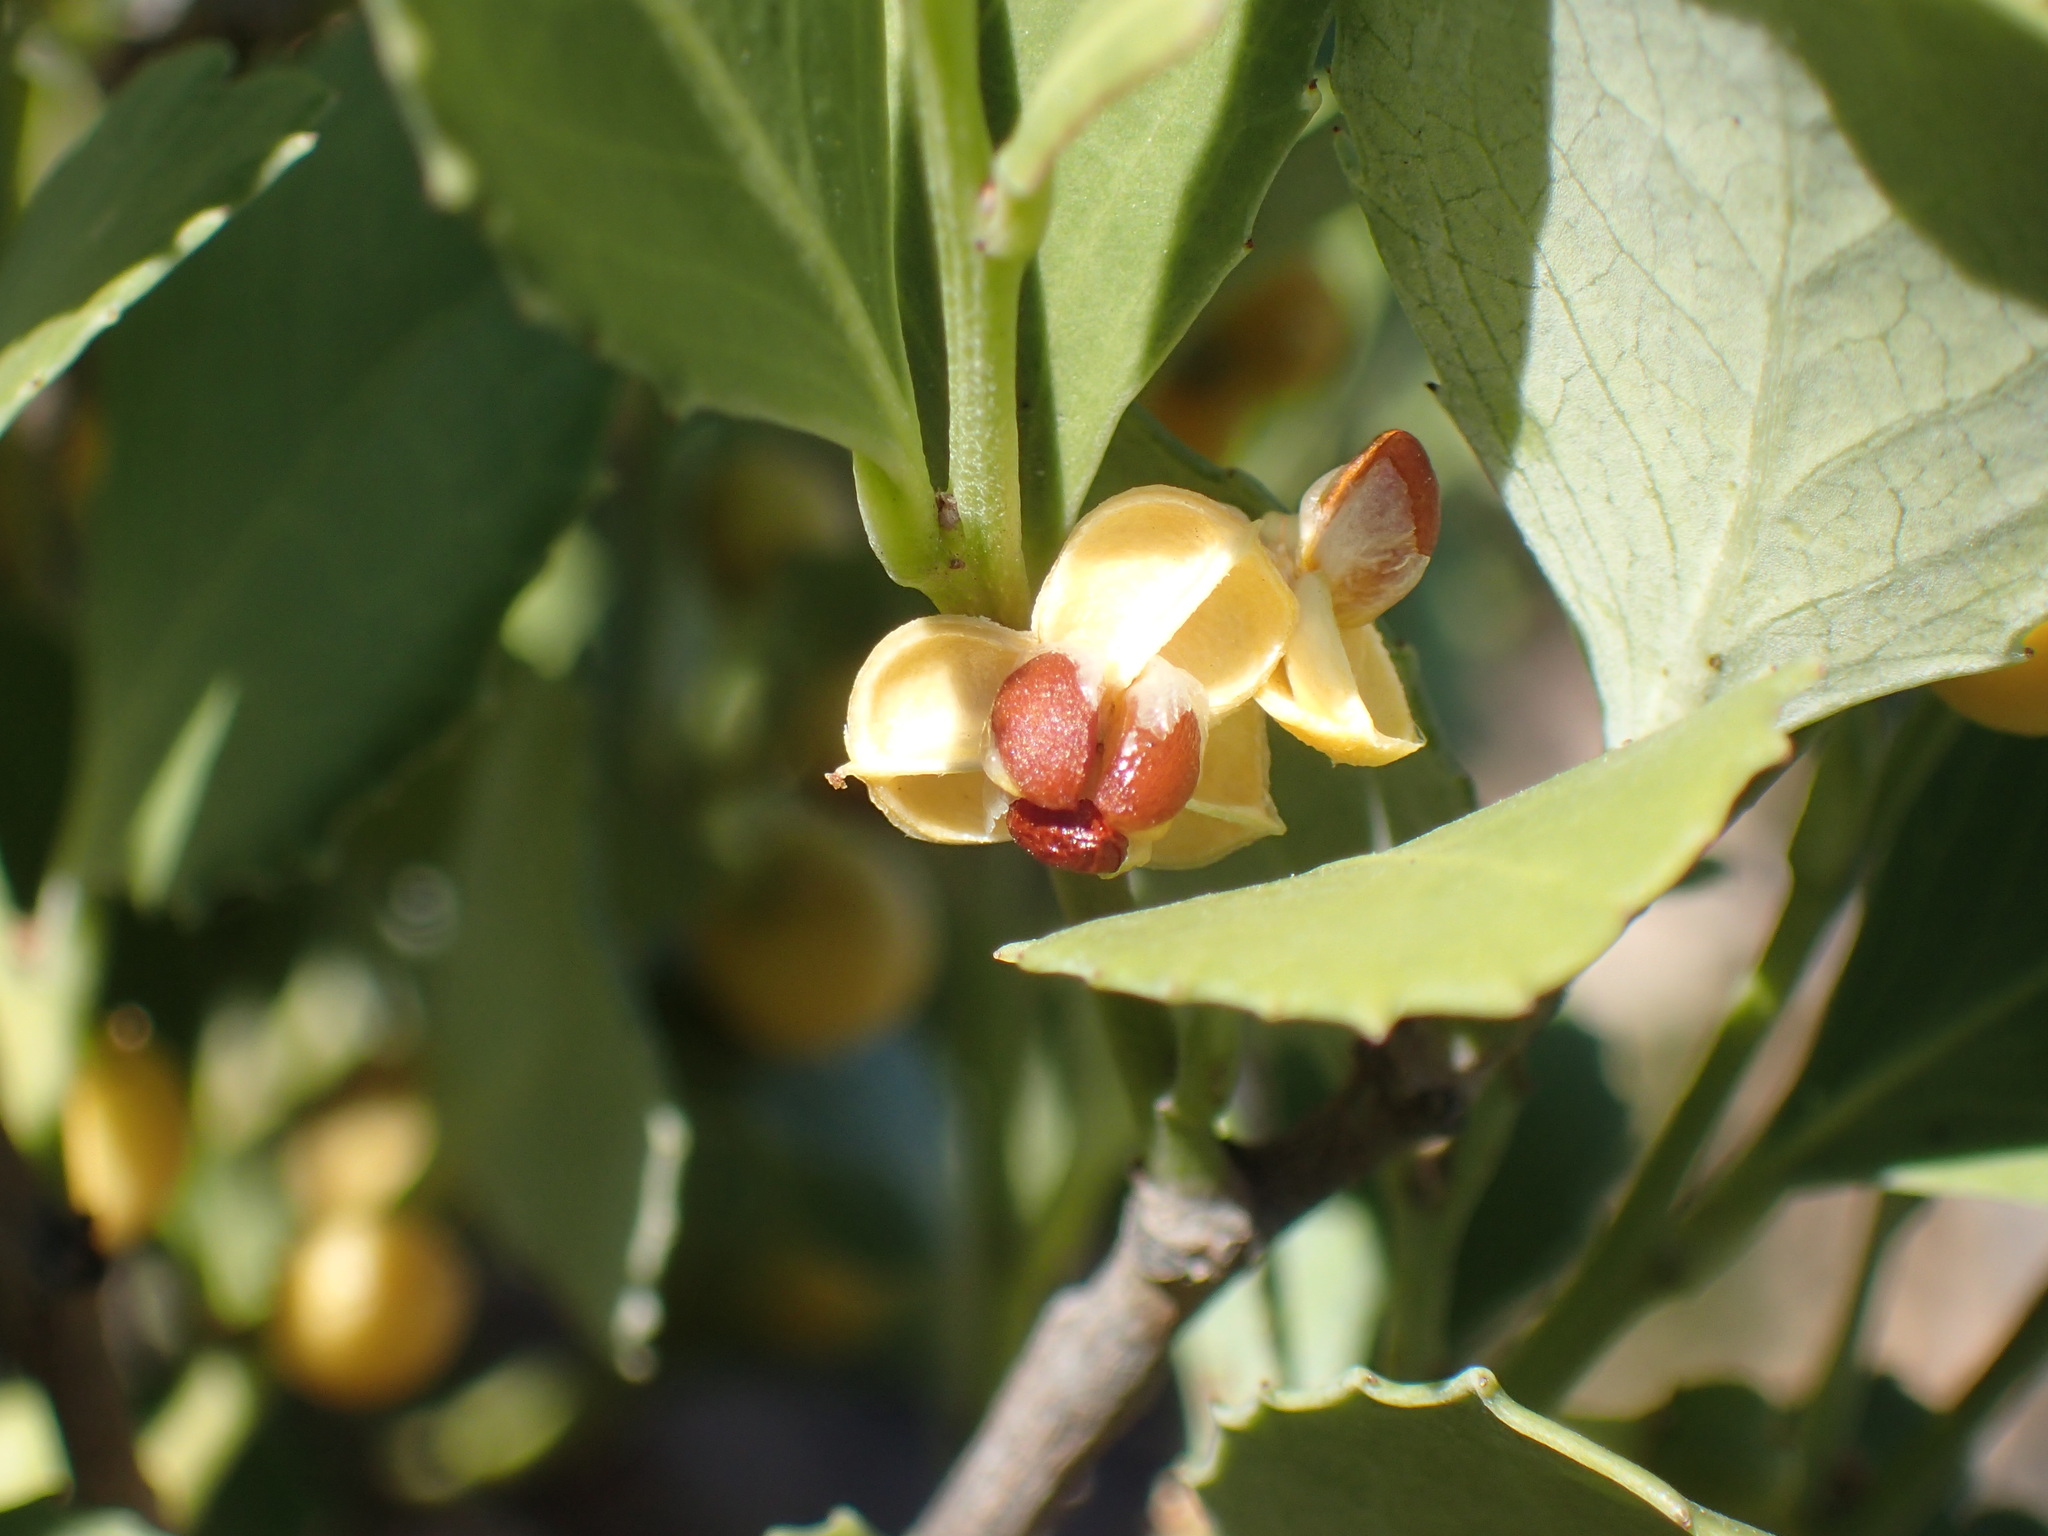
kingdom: Plantae
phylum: Tracheophyta
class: Magnoliopsida
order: Celastrales
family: Celastraceae
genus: Gymnosporia
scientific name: Gymnosporia undata
